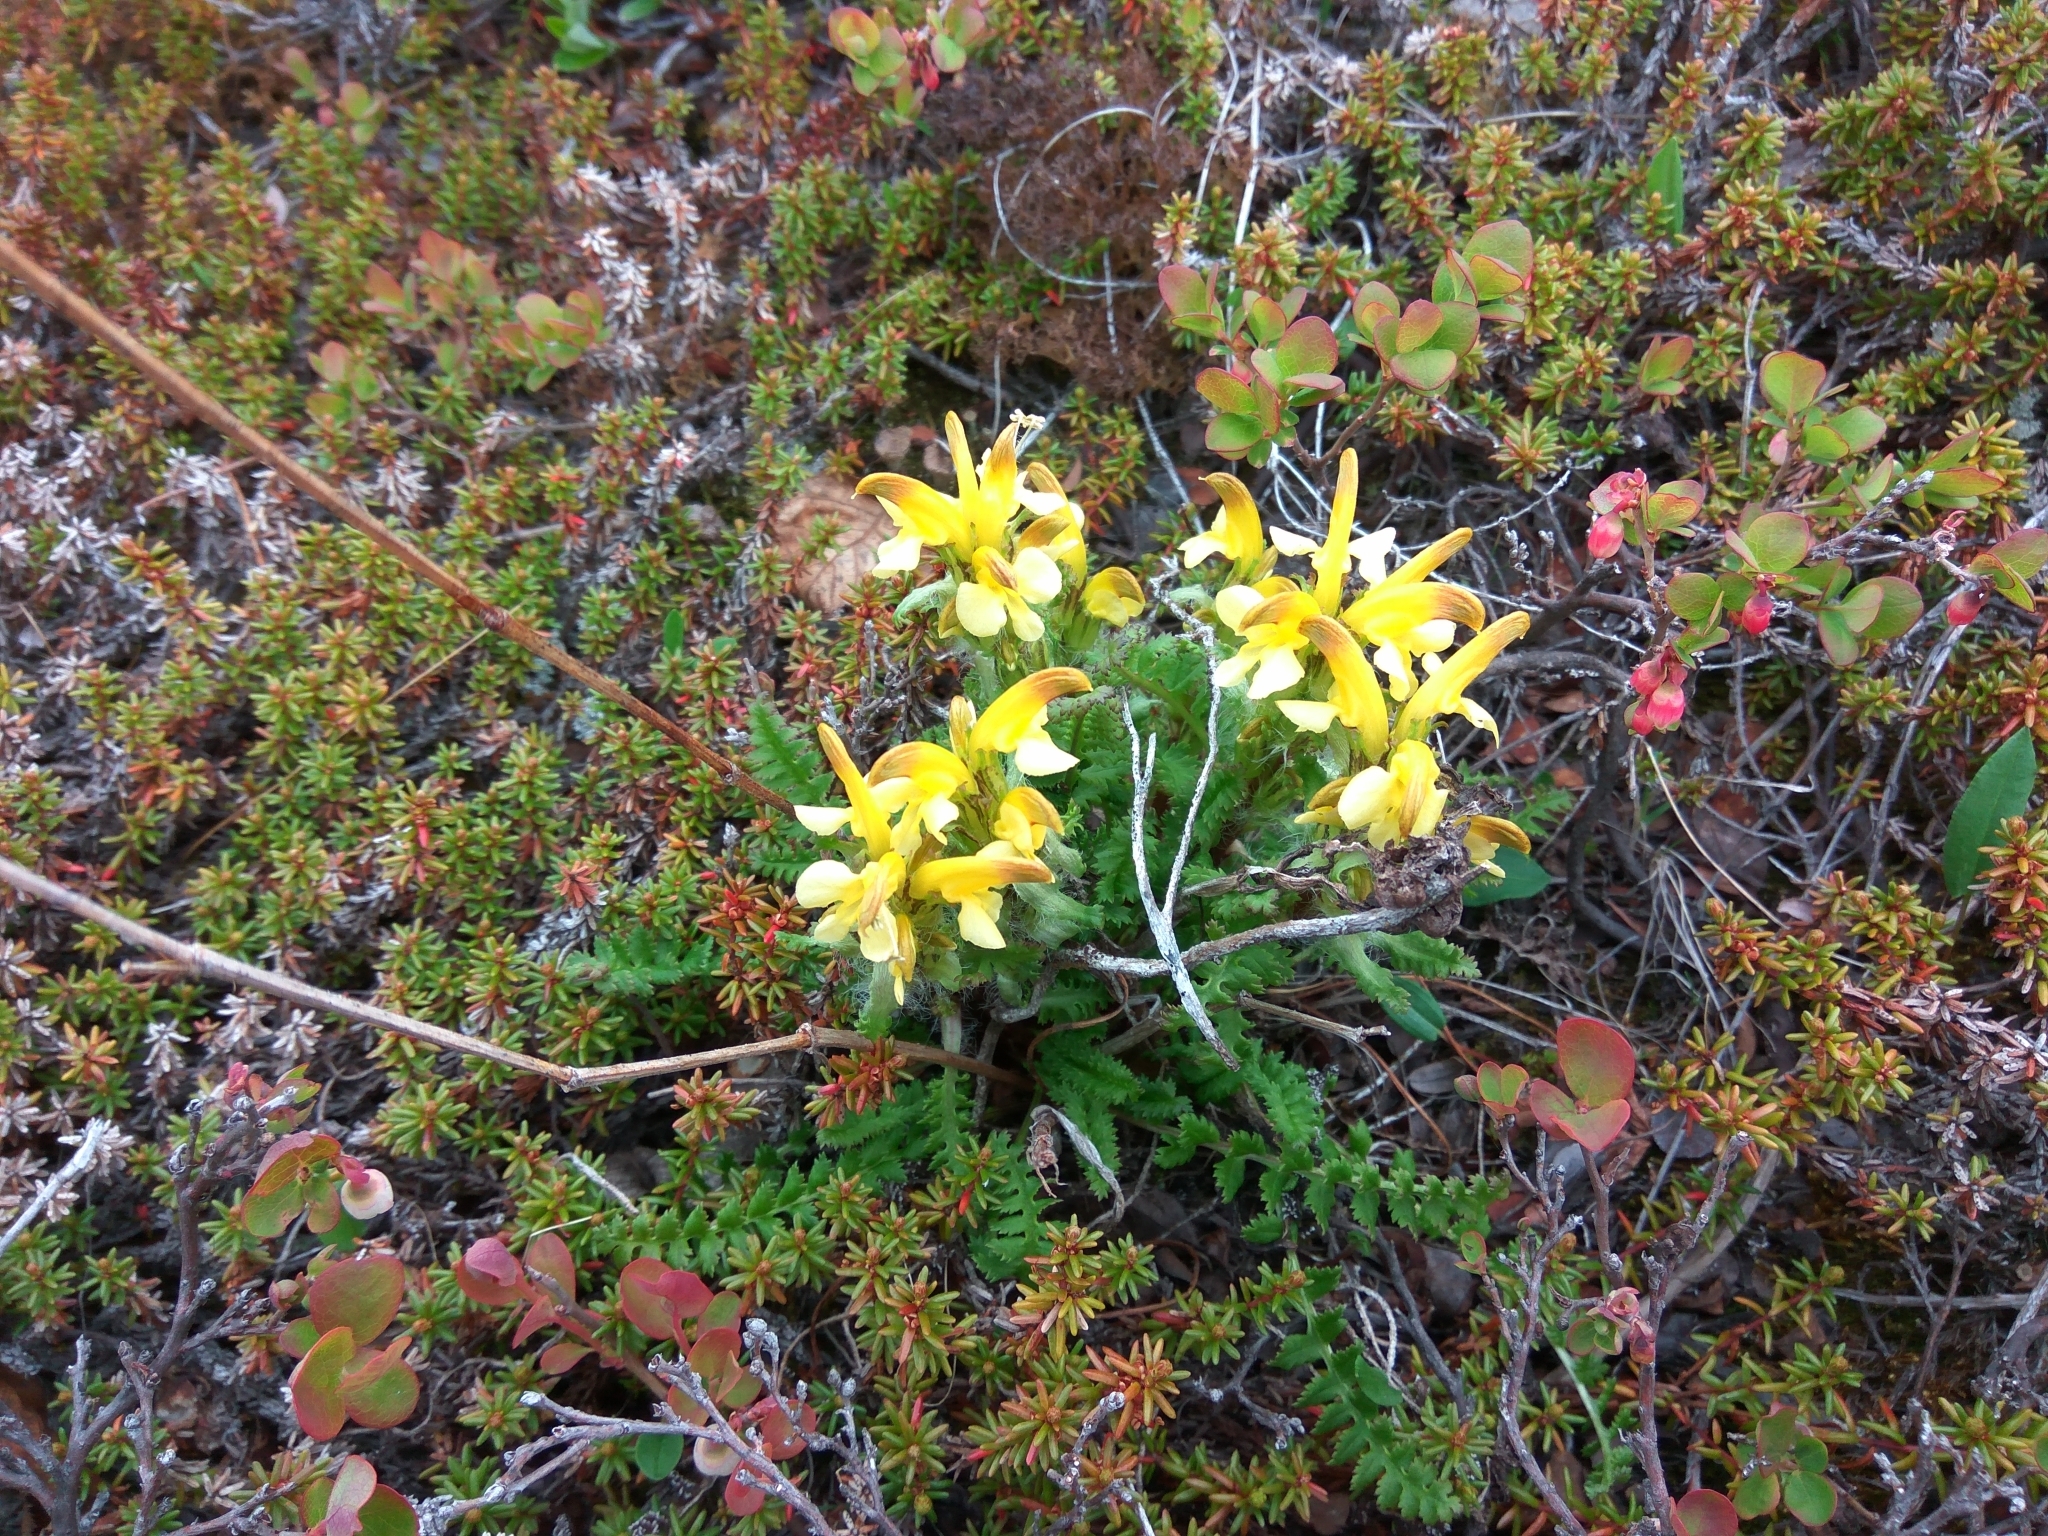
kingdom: Plantae
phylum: Tracheophyta
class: Magnoliopsida
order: Lamiales
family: Orobanchaceae
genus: Pedicularis
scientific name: Pedicularis oederi
